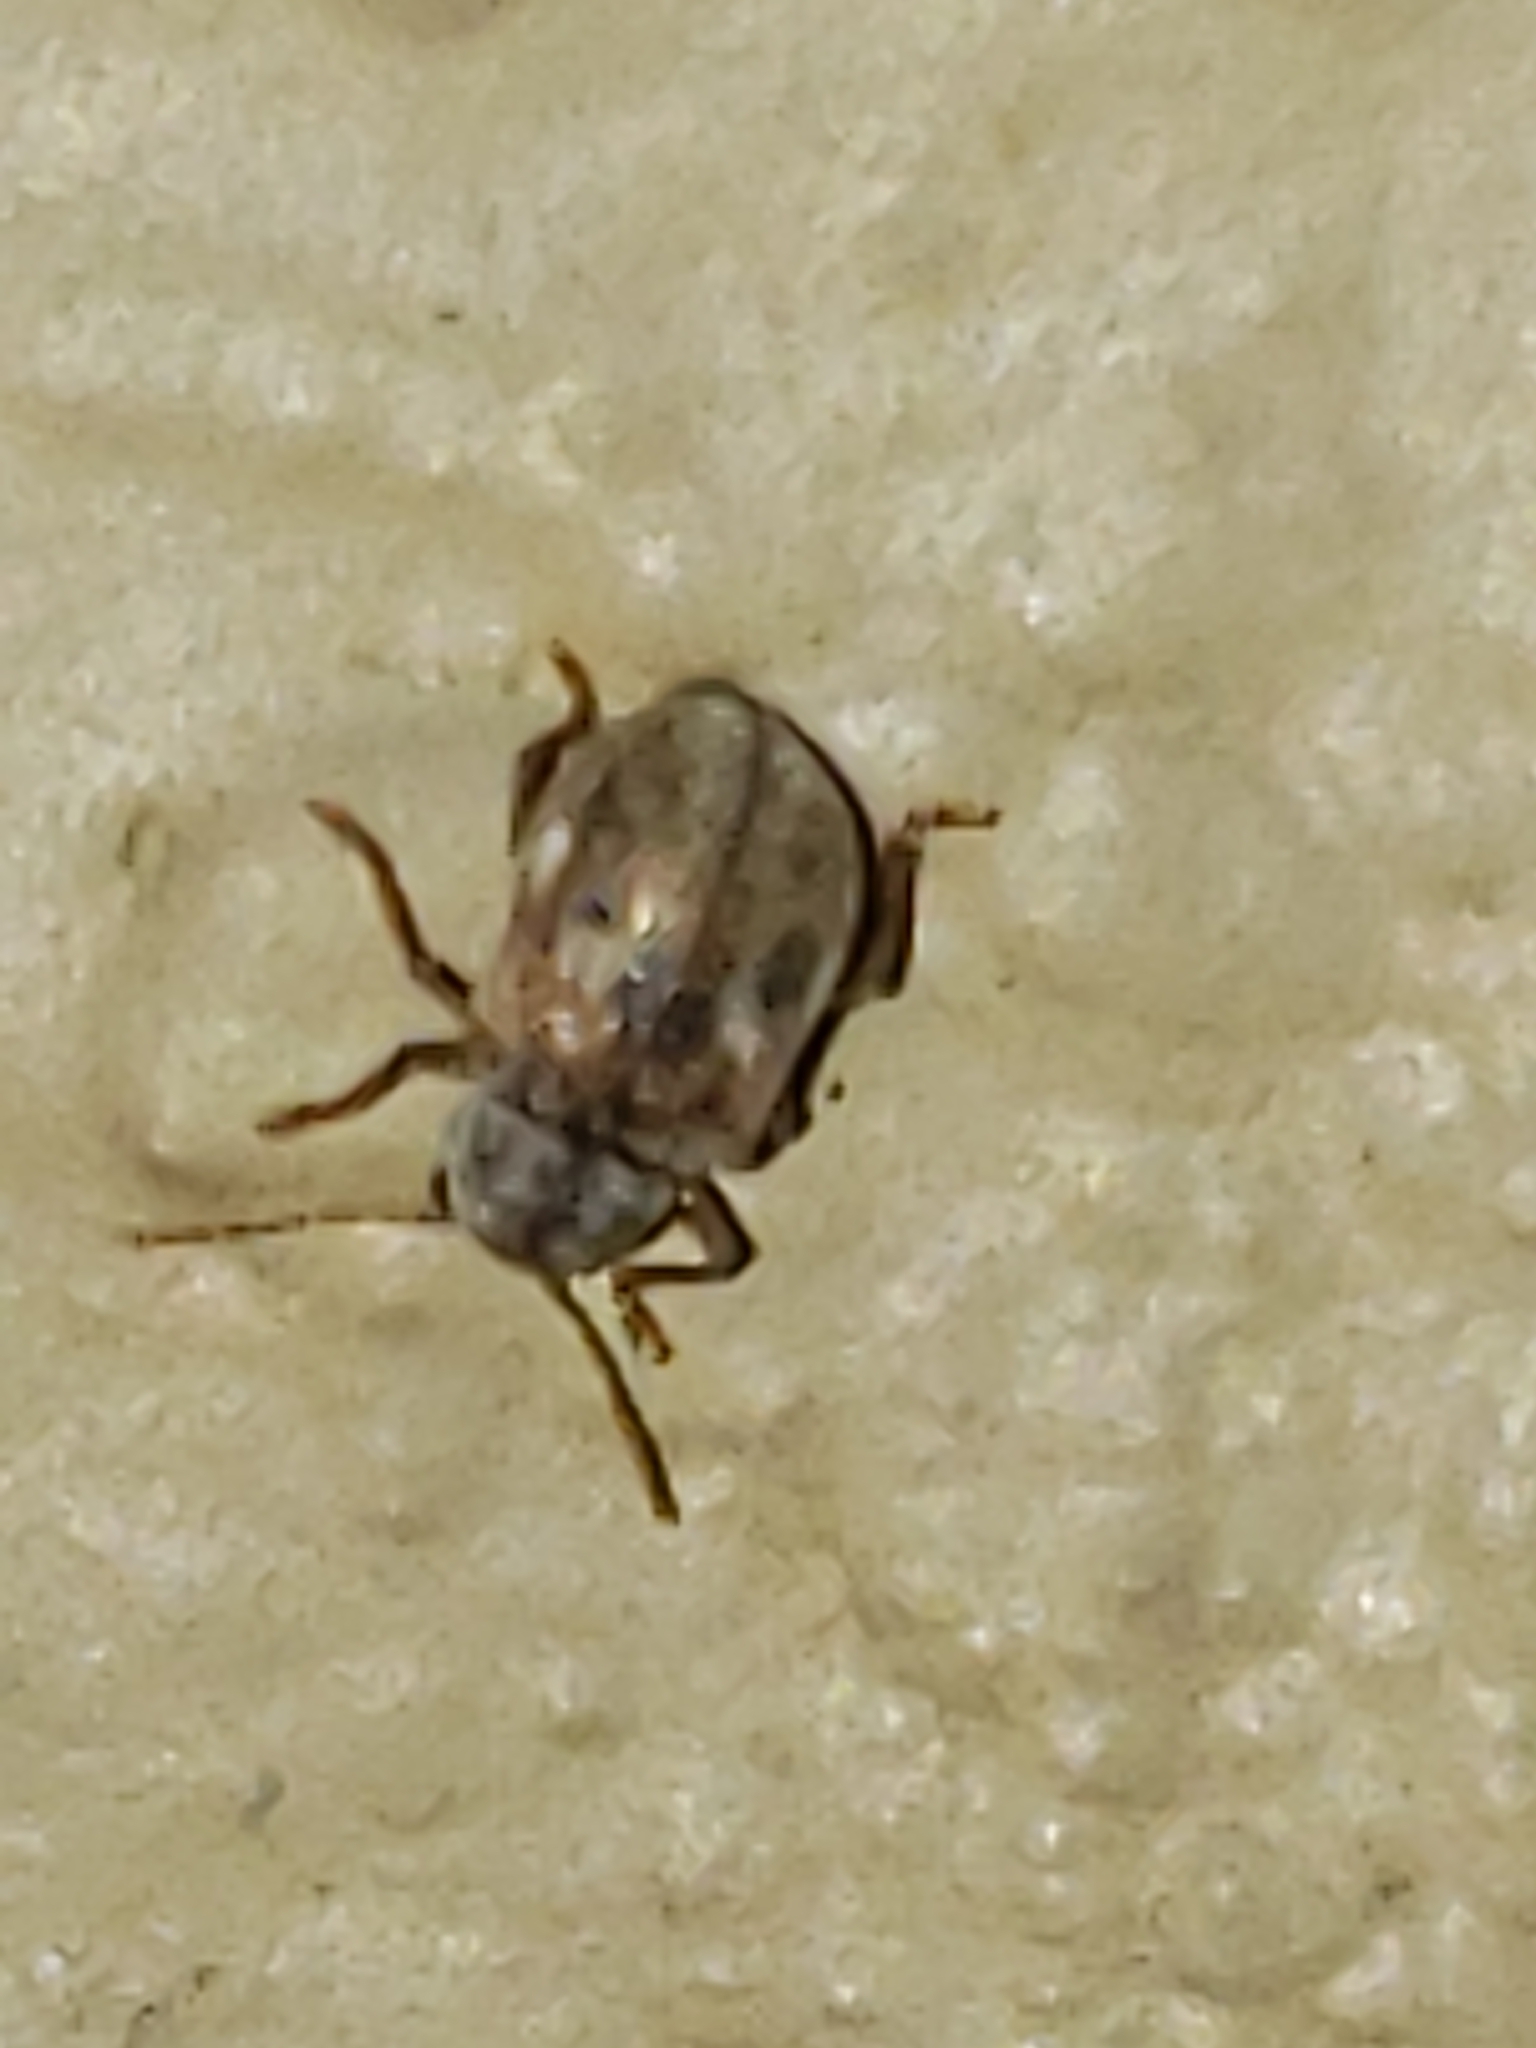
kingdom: Animalia
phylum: Arthropoda
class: Insecta
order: Coleoptera
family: Chrysomelidae
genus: Demotina
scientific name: Demotina modesta
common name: Leaf beetle
